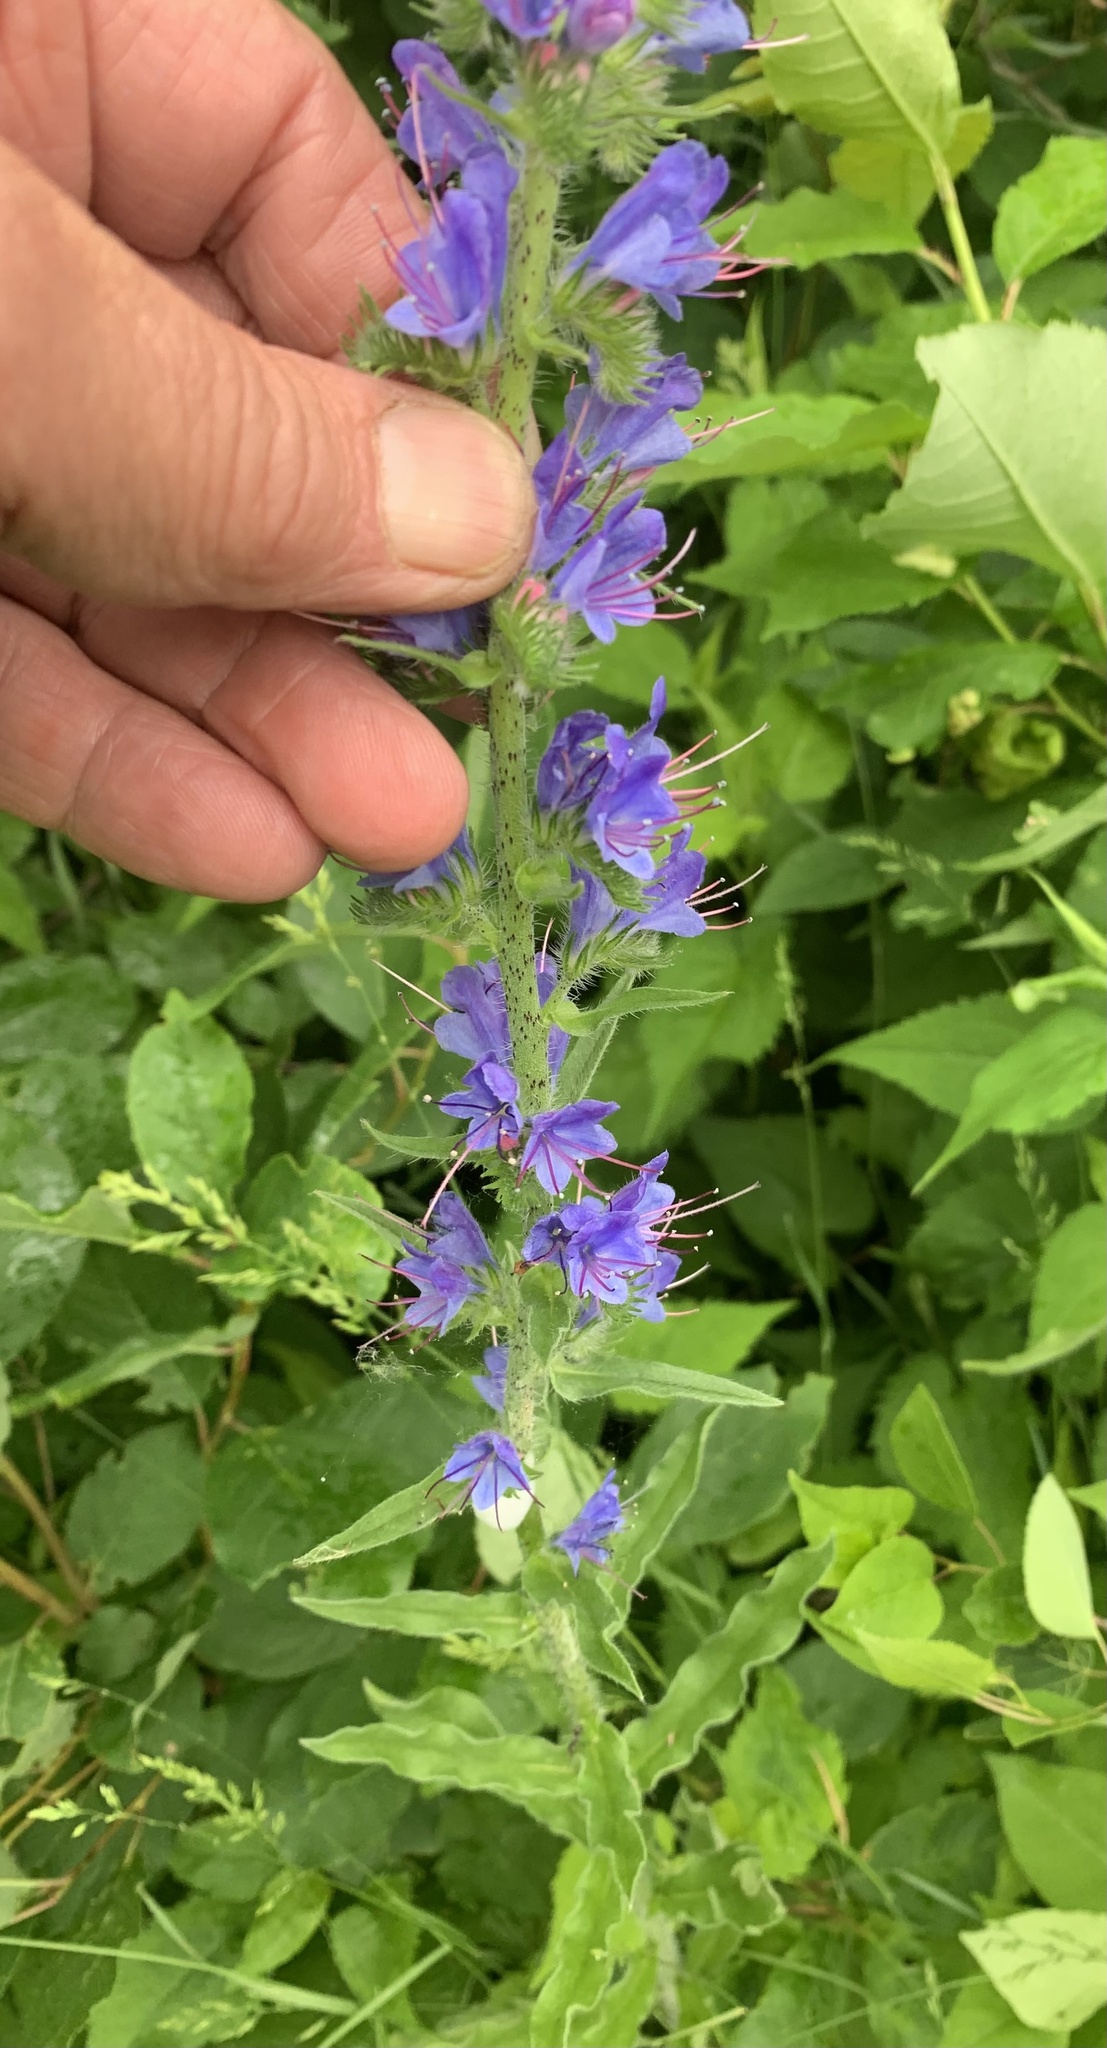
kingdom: Plantae
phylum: Tracheophyta
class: Magnoliopsida
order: Boraginales
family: Boraginaceae
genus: Echium
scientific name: Echium vulgare
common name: Common viper's bugloss
